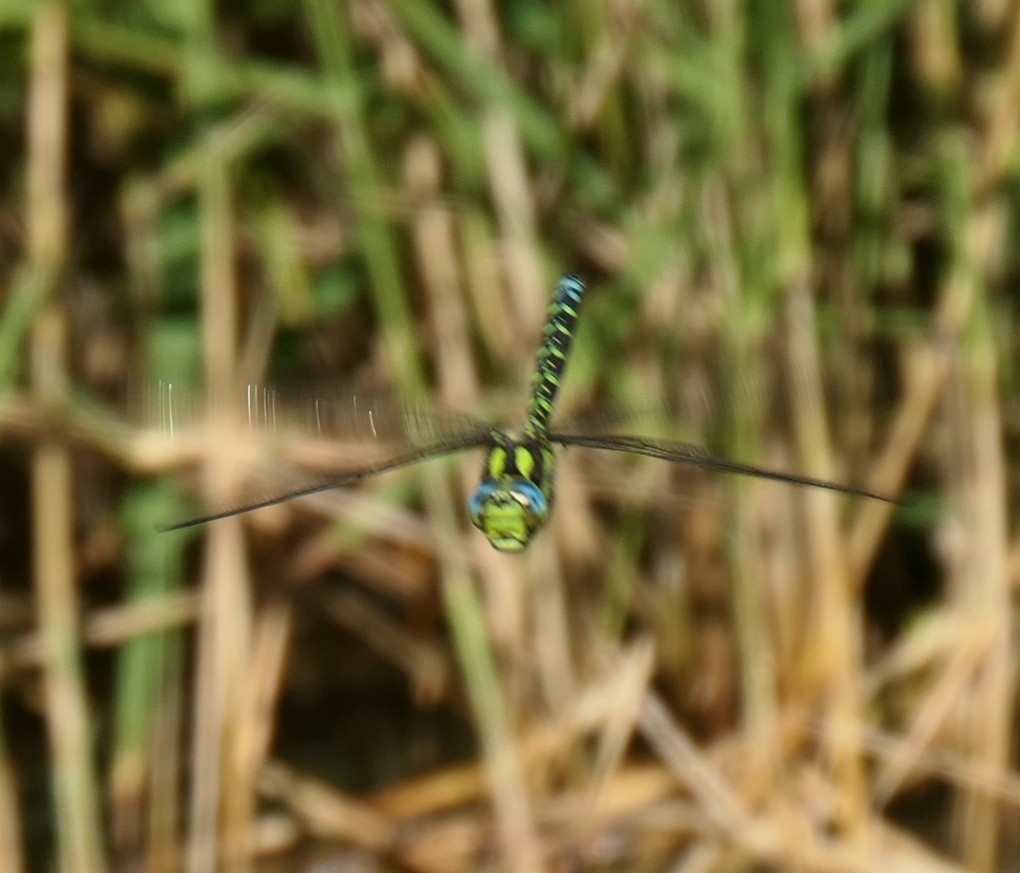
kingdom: Animalia
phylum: Arthropoda
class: Insecta
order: Odonata
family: Aeshnidae
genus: Aeshna
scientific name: Aeshna cyanea
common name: Southern hawker
